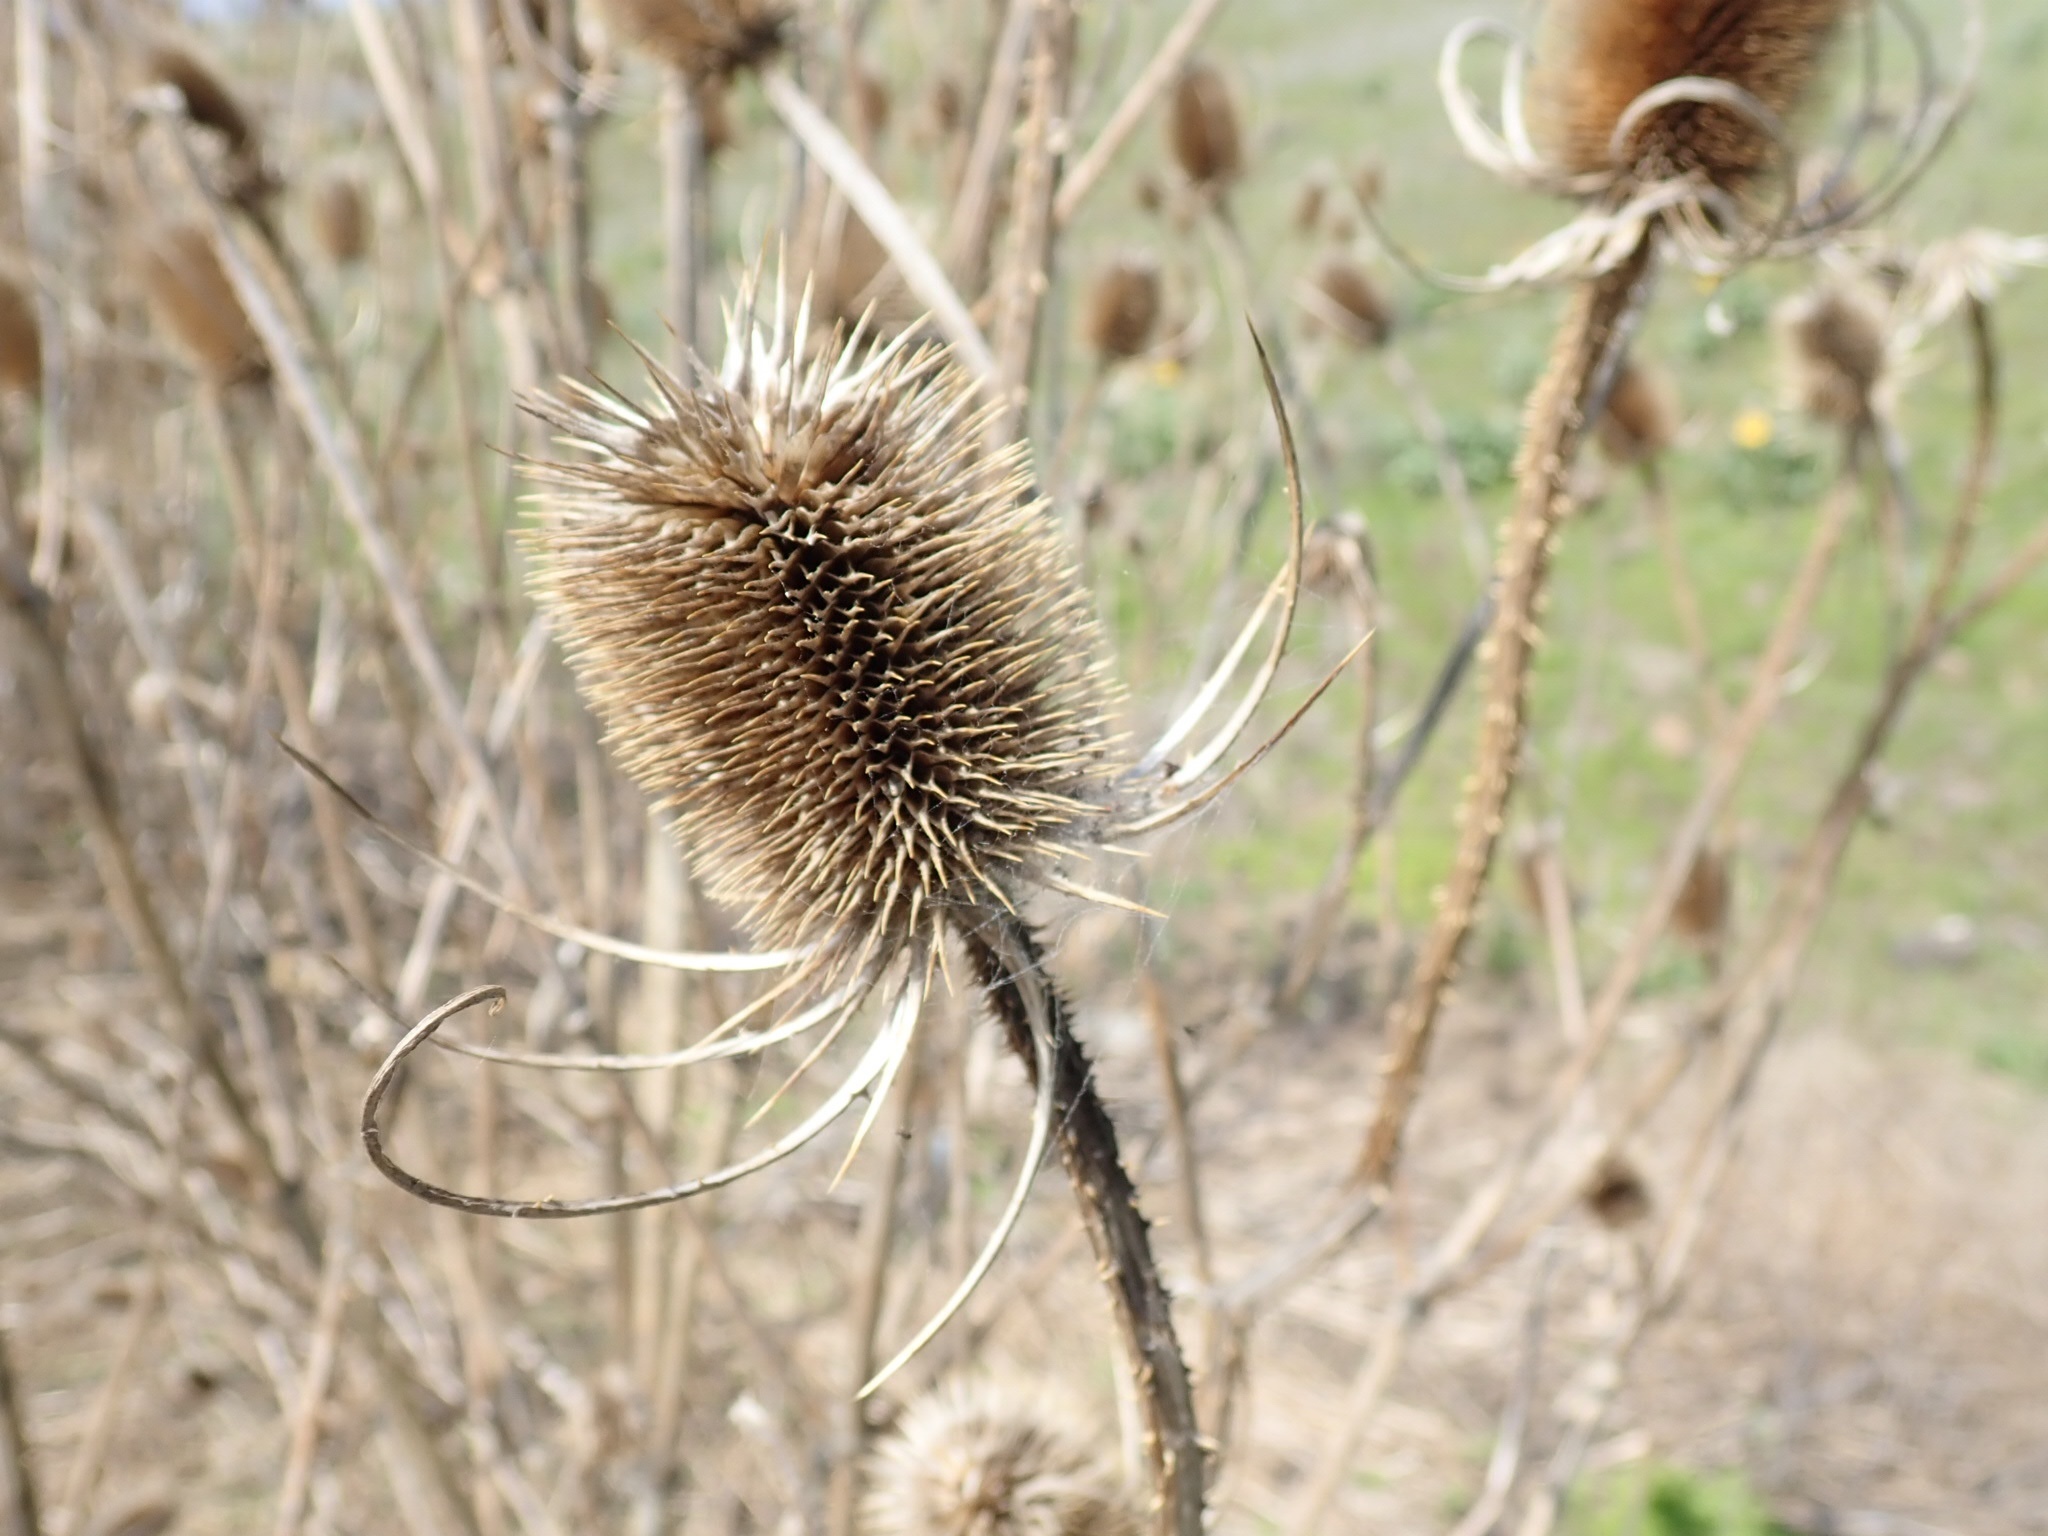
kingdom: Plantae
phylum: Tracheophyta
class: Magnoliopsida
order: Dipsacales
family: Caprifoliaceae
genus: Dipsacus
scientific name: Dipsacus fullonum
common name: Teasel
